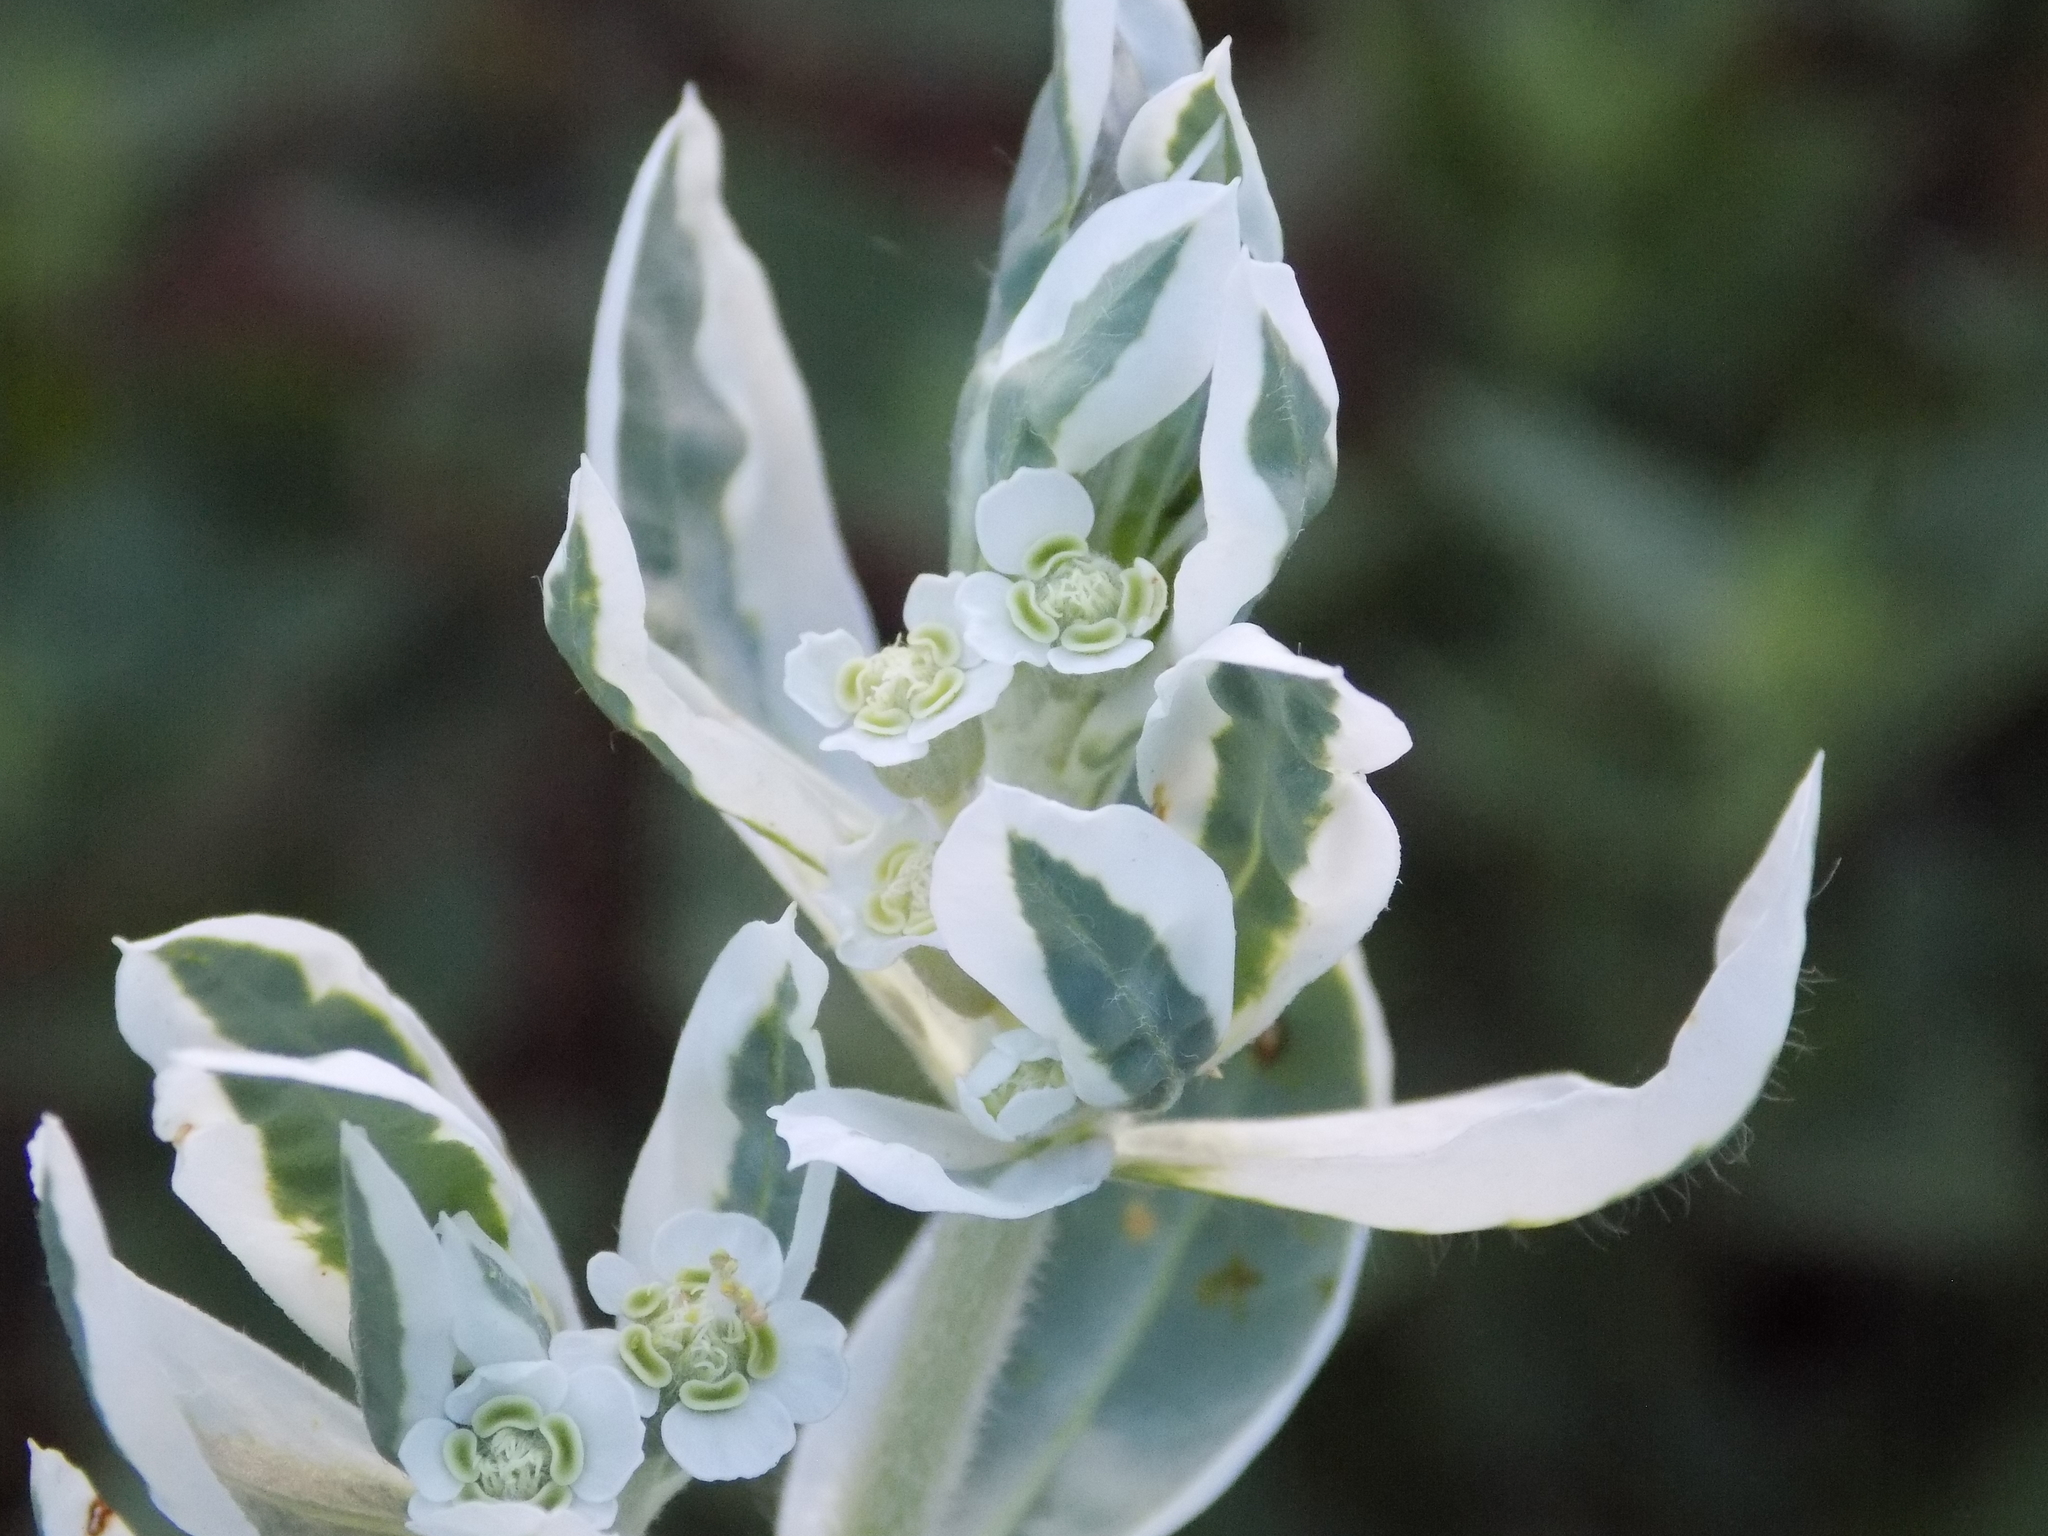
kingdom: Plantae
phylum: Tracheophyta
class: Magnoliopsida
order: Malpighiales
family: Euphorbiaceae
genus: Euphorbia
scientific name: Euphorbia marginata
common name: Ghostweed
